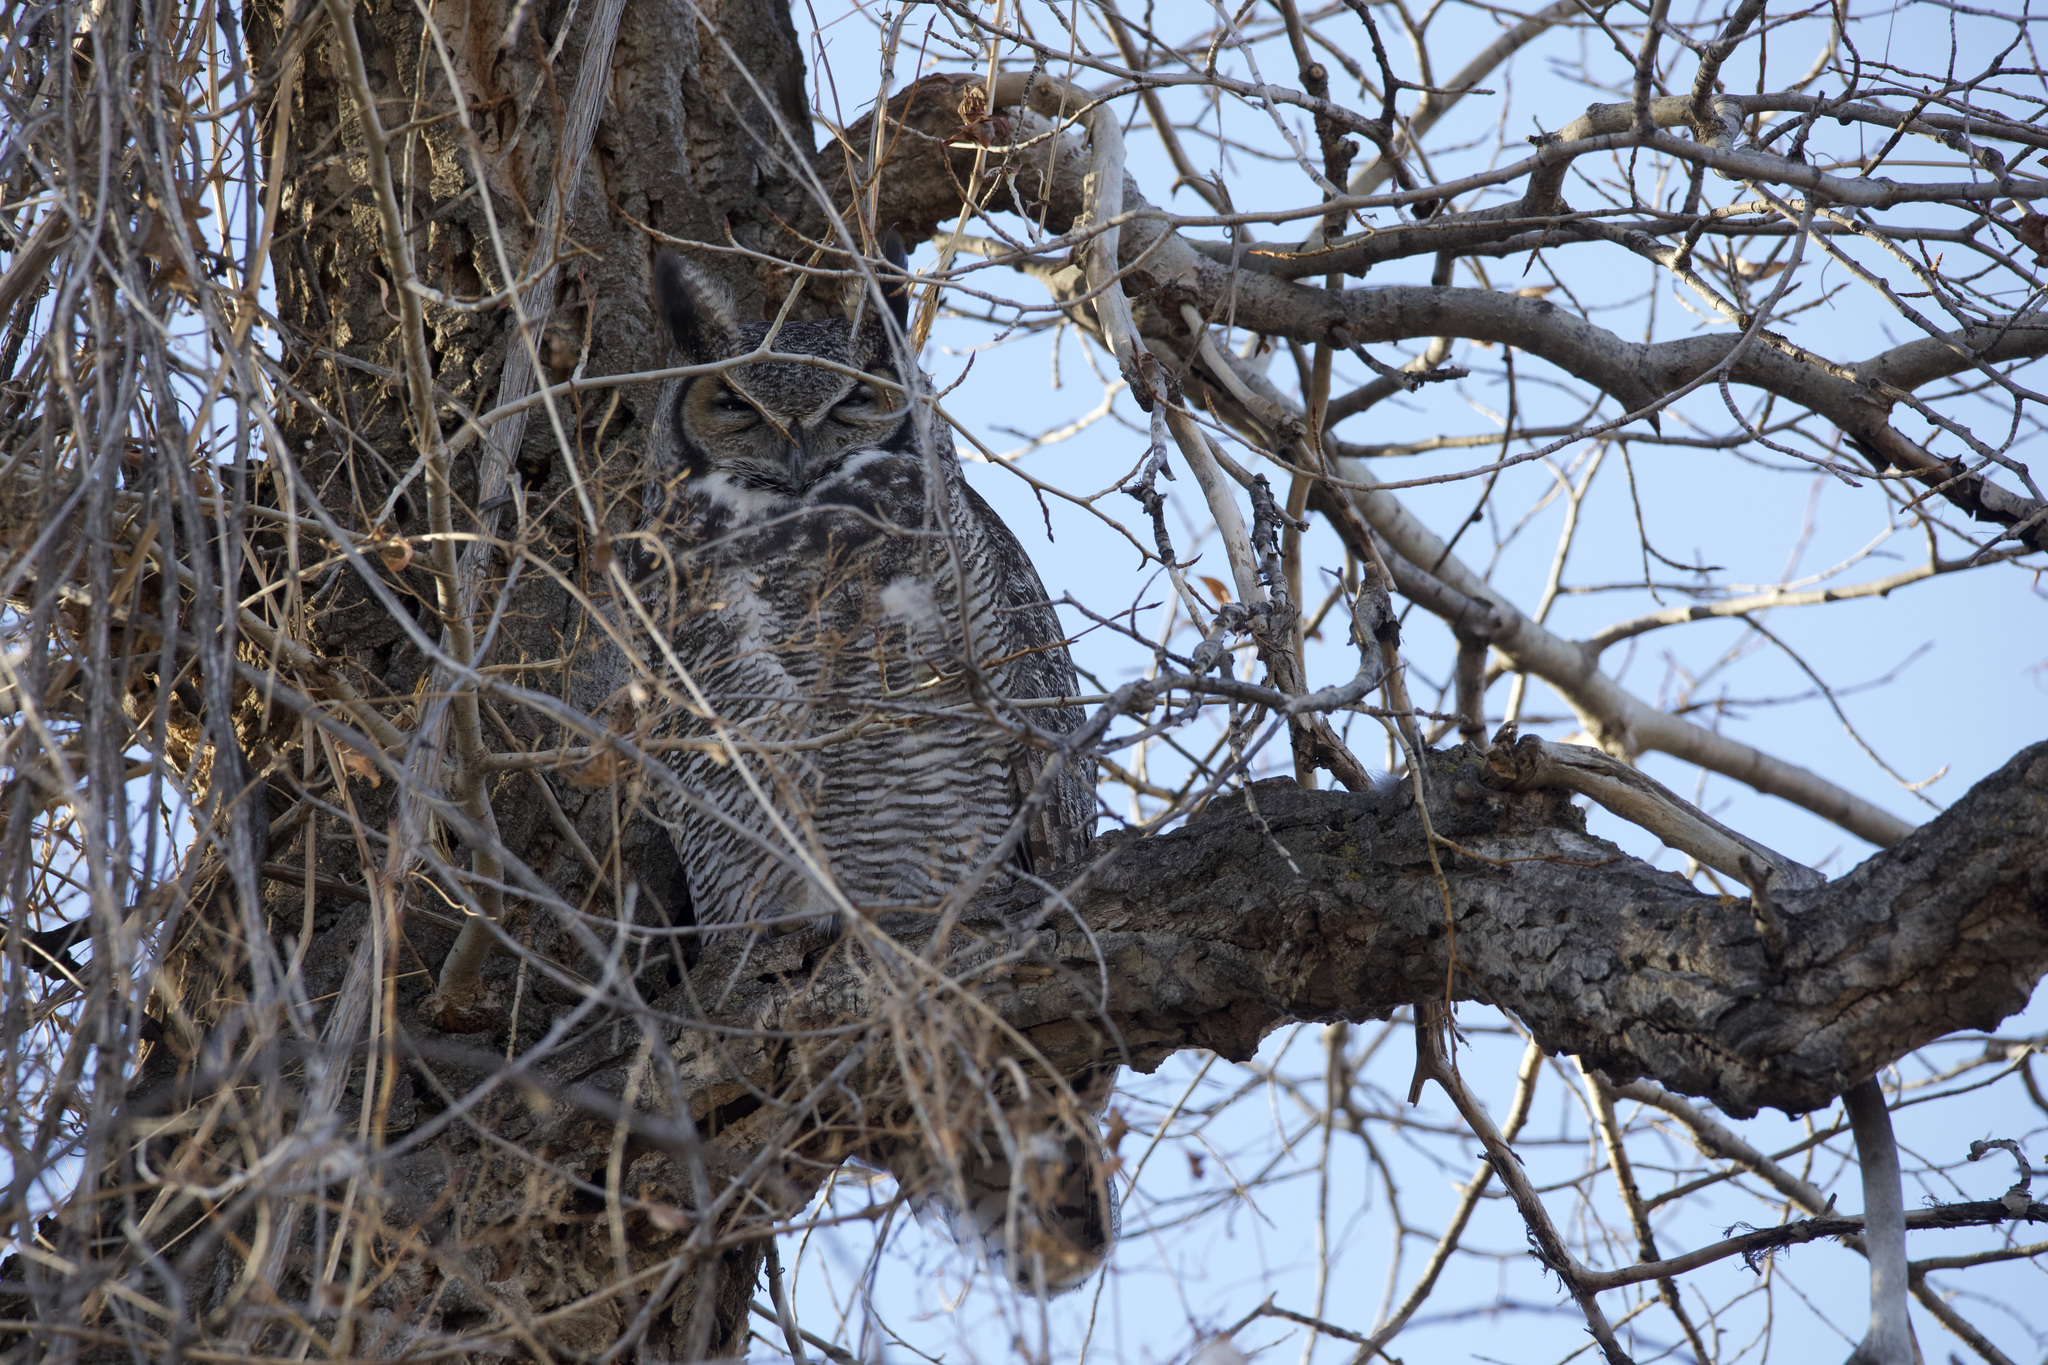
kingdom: Animalia
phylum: Chordata
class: Aves
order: Strigiformes
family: Strigidae
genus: Bubo
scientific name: Bubo virginianus
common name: Great horned owl
